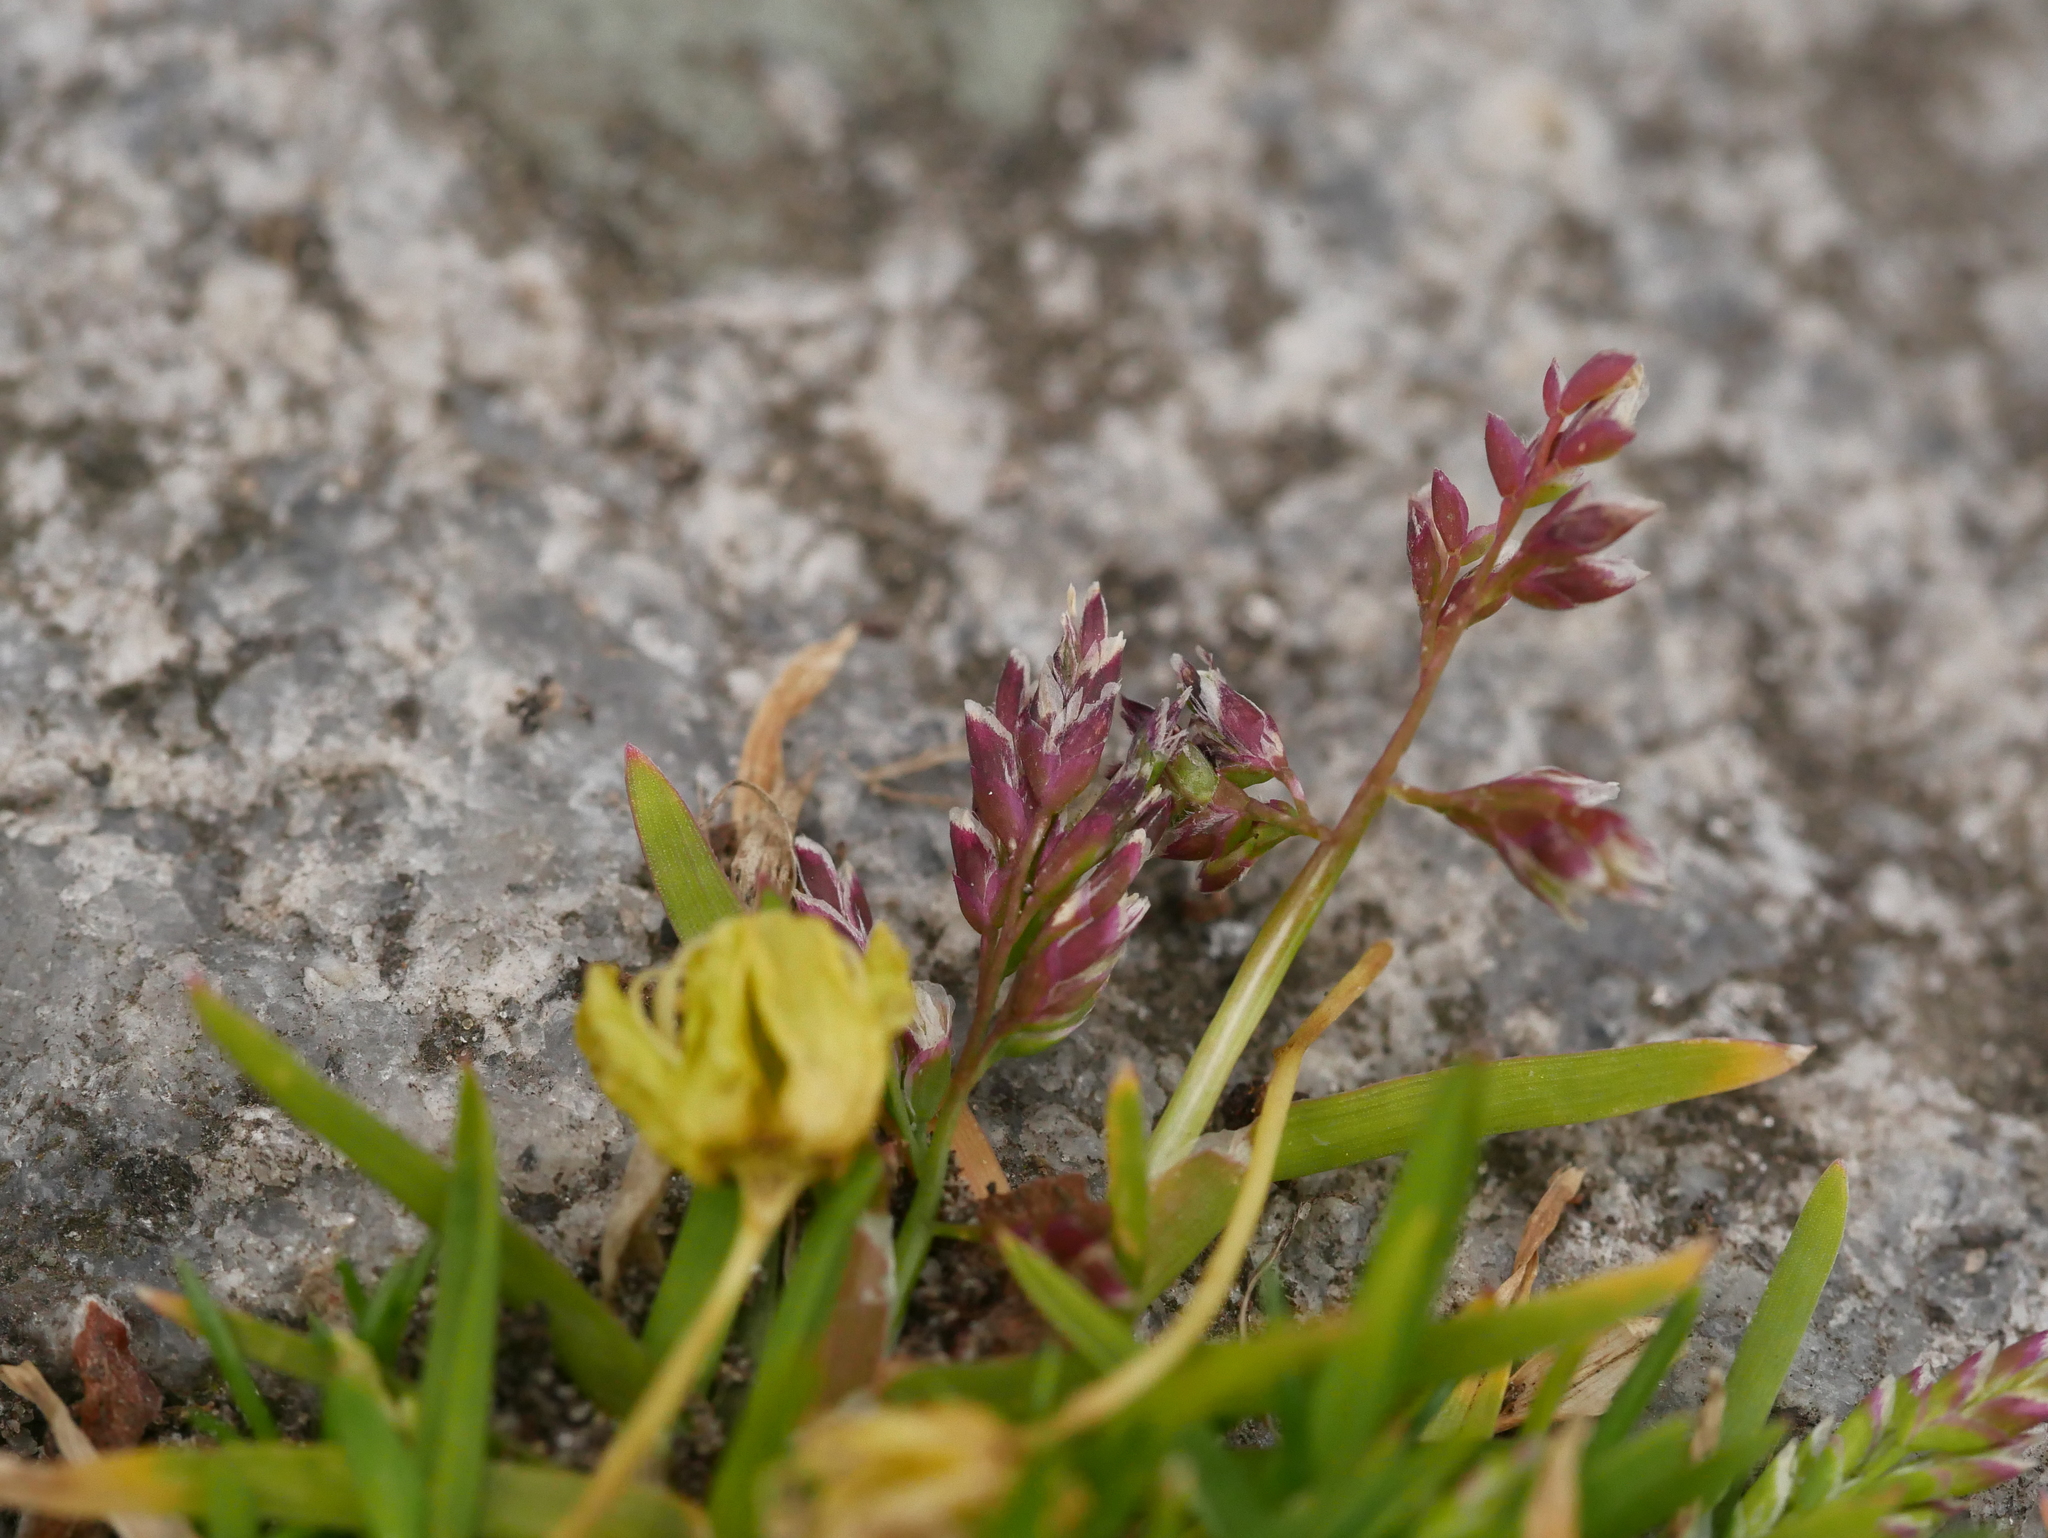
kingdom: Plantae
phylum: Tracheophyta
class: Liliopsida
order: Poales
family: Poaceae
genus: Poa
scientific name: Poa annua
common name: Annual bluegrass
